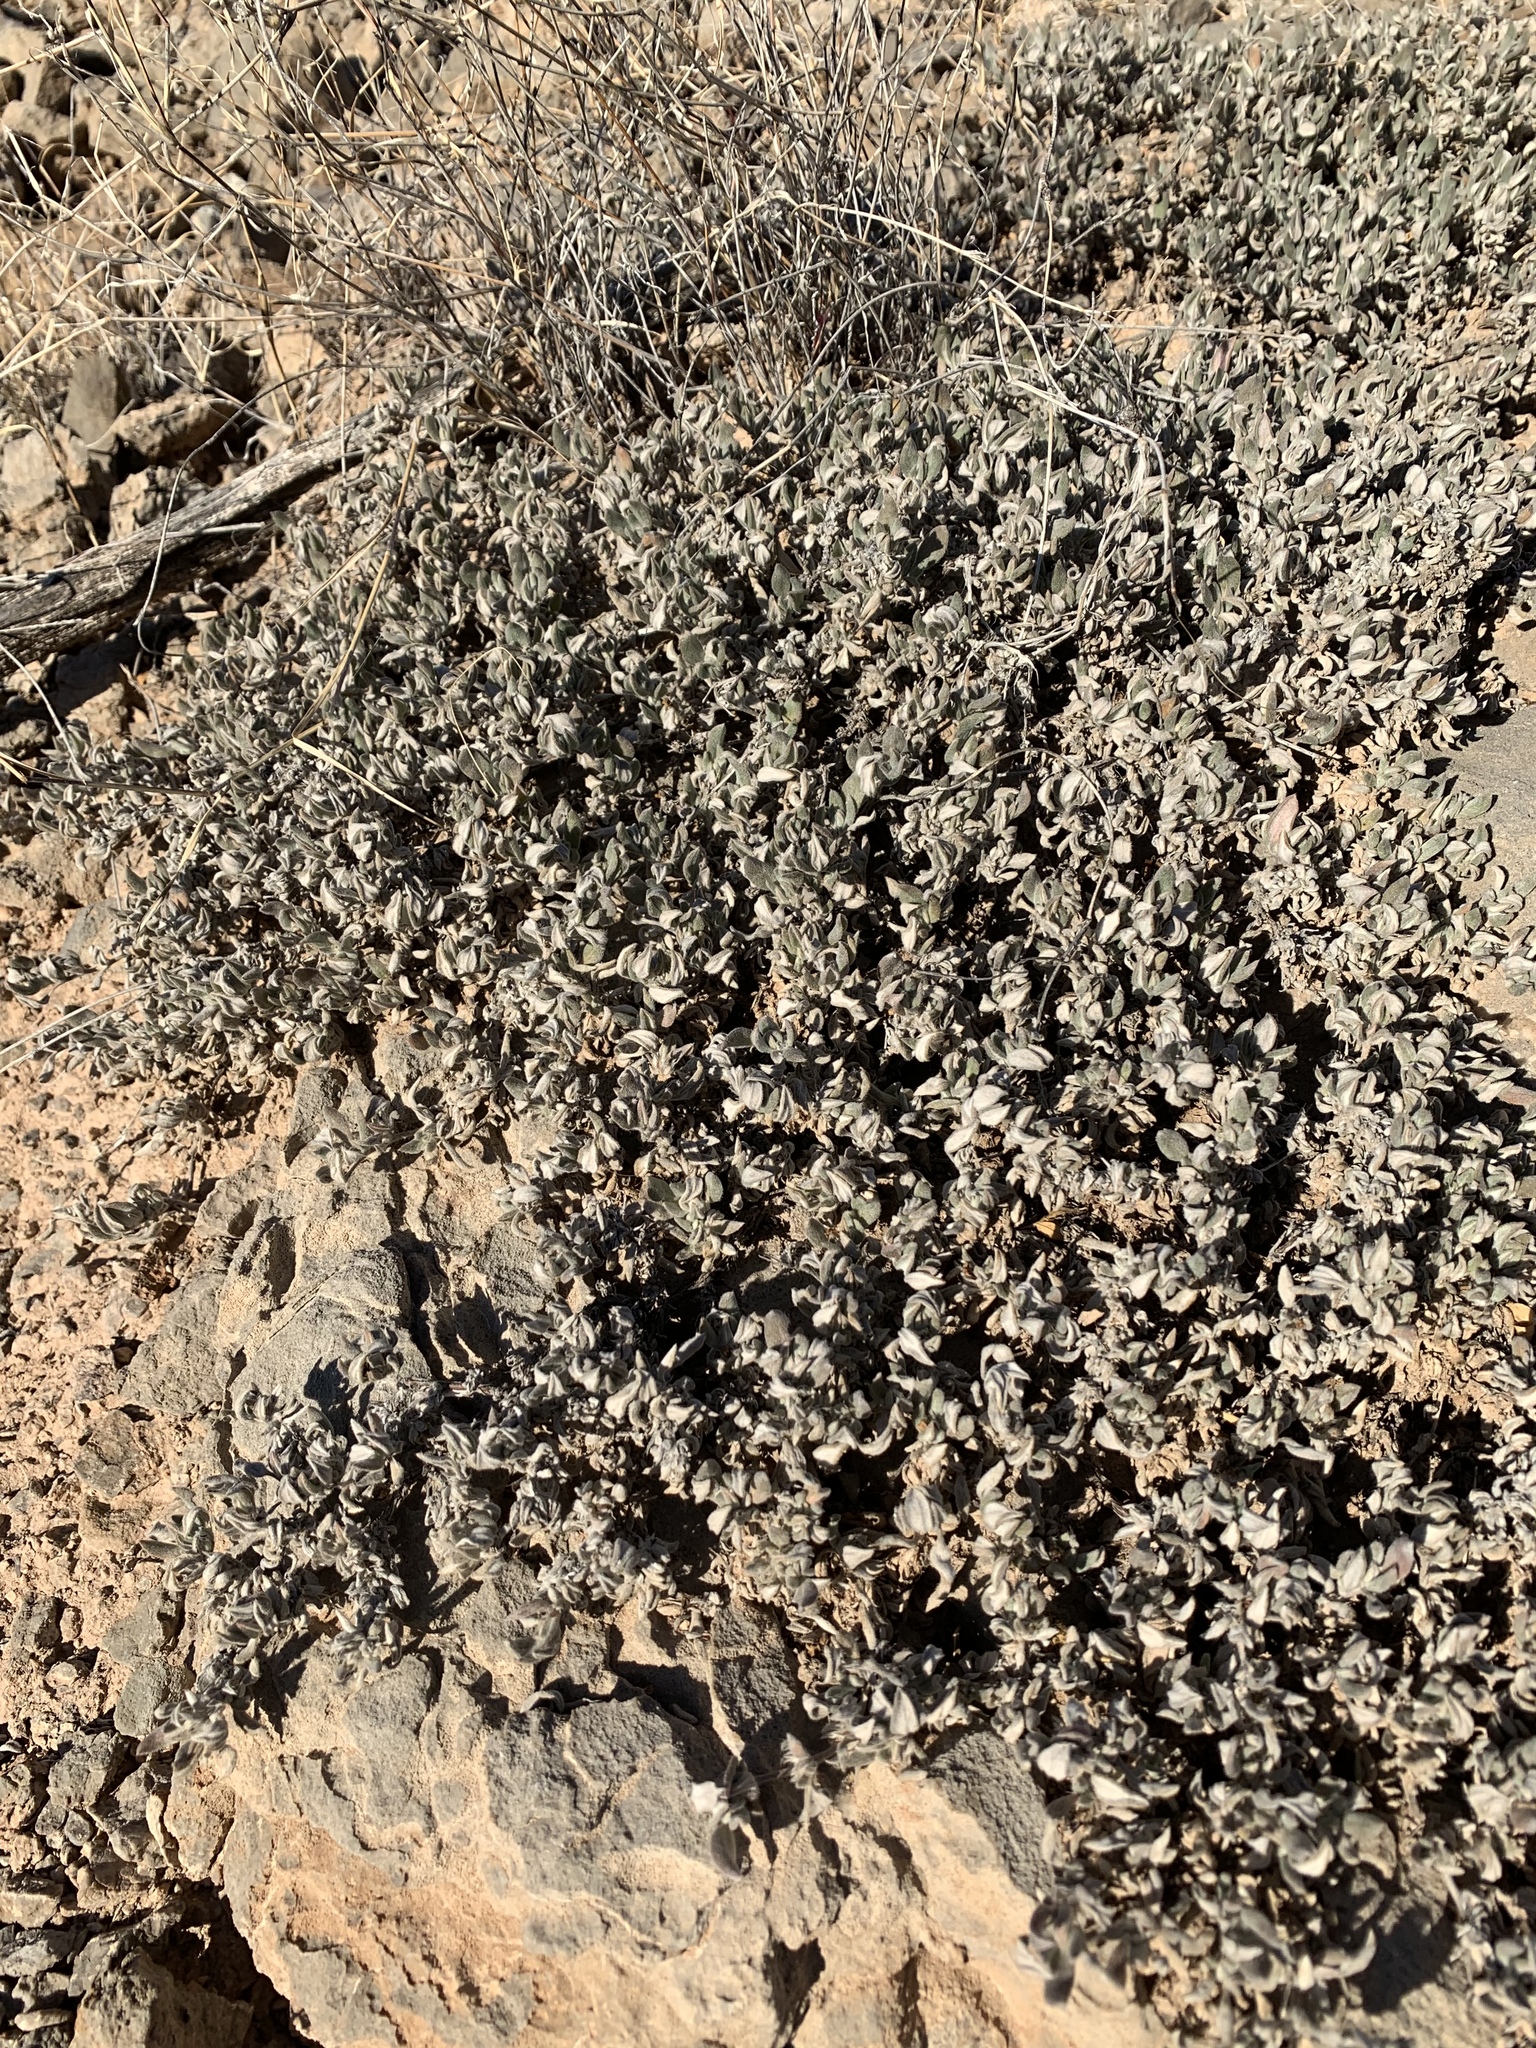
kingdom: Plantae
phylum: Tracheophyta
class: Magnoliopsida
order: Boraginales
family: Ehretiaceae
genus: Tiquilia
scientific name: Tiquilia canescens
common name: Hairy tiquilia
